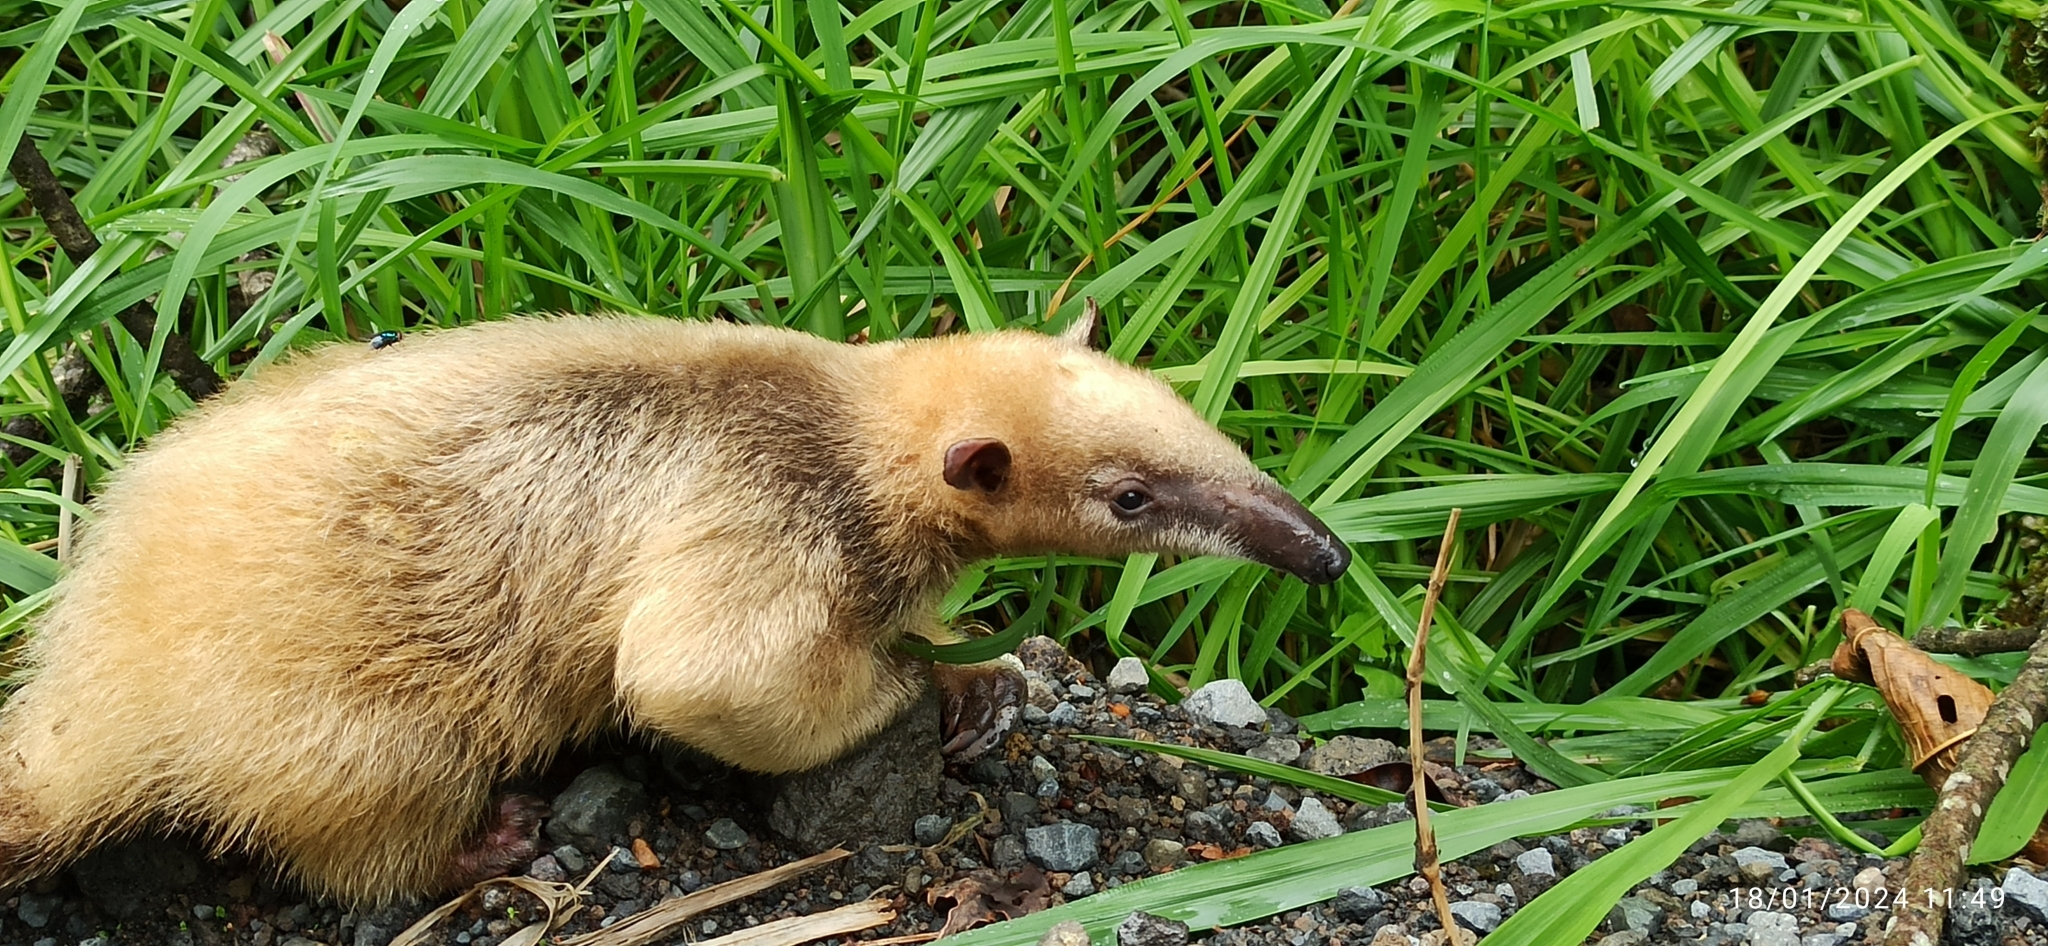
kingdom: Animalia
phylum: Chordata
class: Mammalia
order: Pilosa
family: Myrmecophagidae
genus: Tamandua
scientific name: Tamandua mexicana
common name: Northern tamandua
